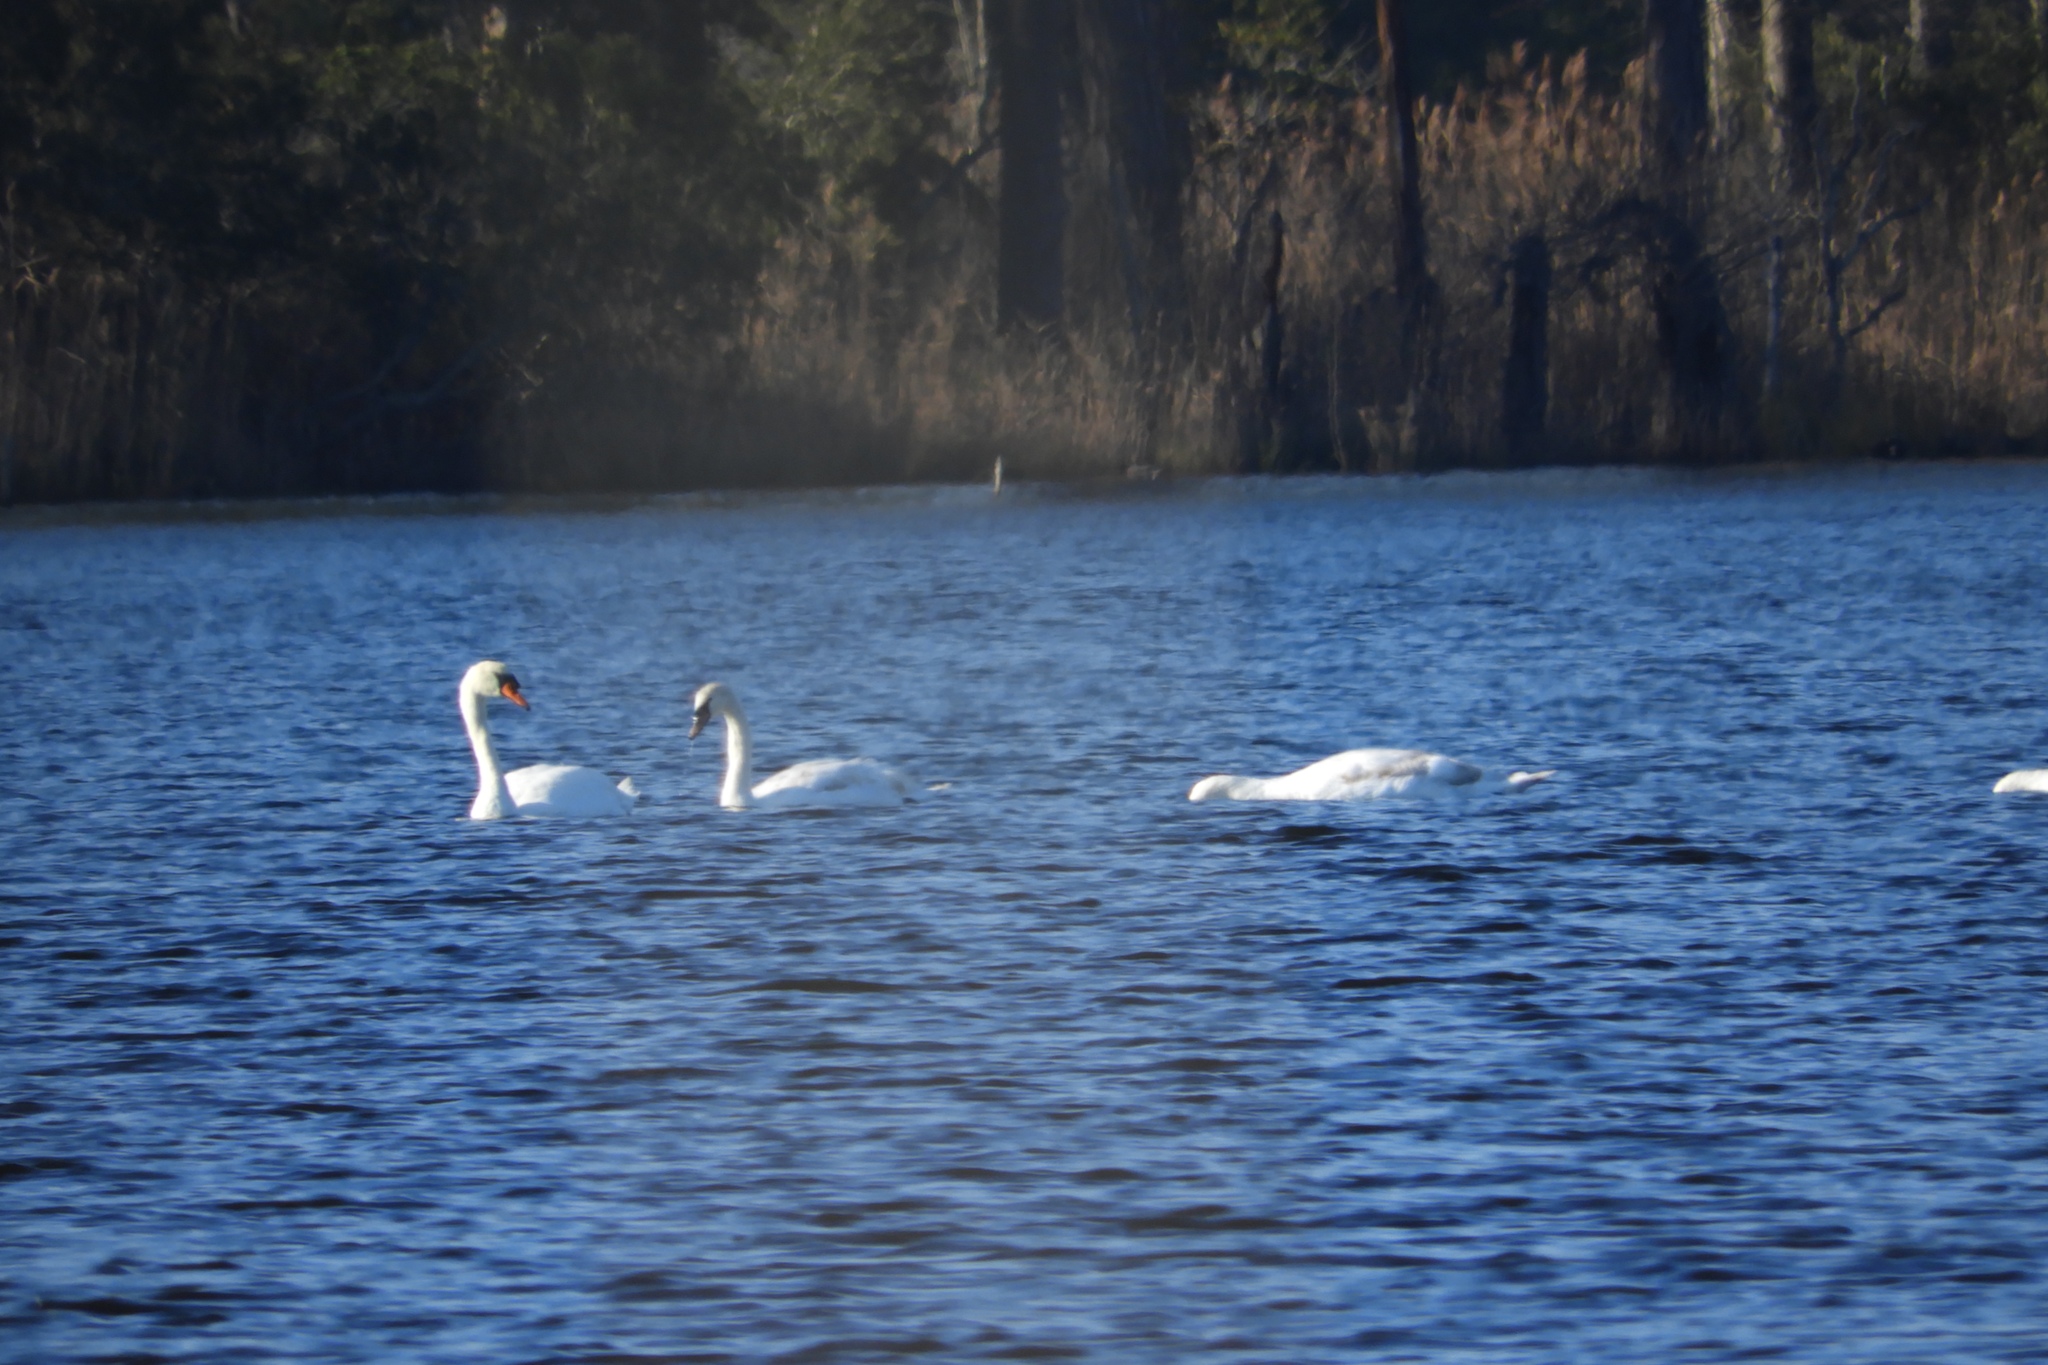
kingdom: Animalia
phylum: Chordata
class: Aves
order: Anseriformes
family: Anatidae
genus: Cygnus
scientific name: Cygnus olor
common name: Mute swan
